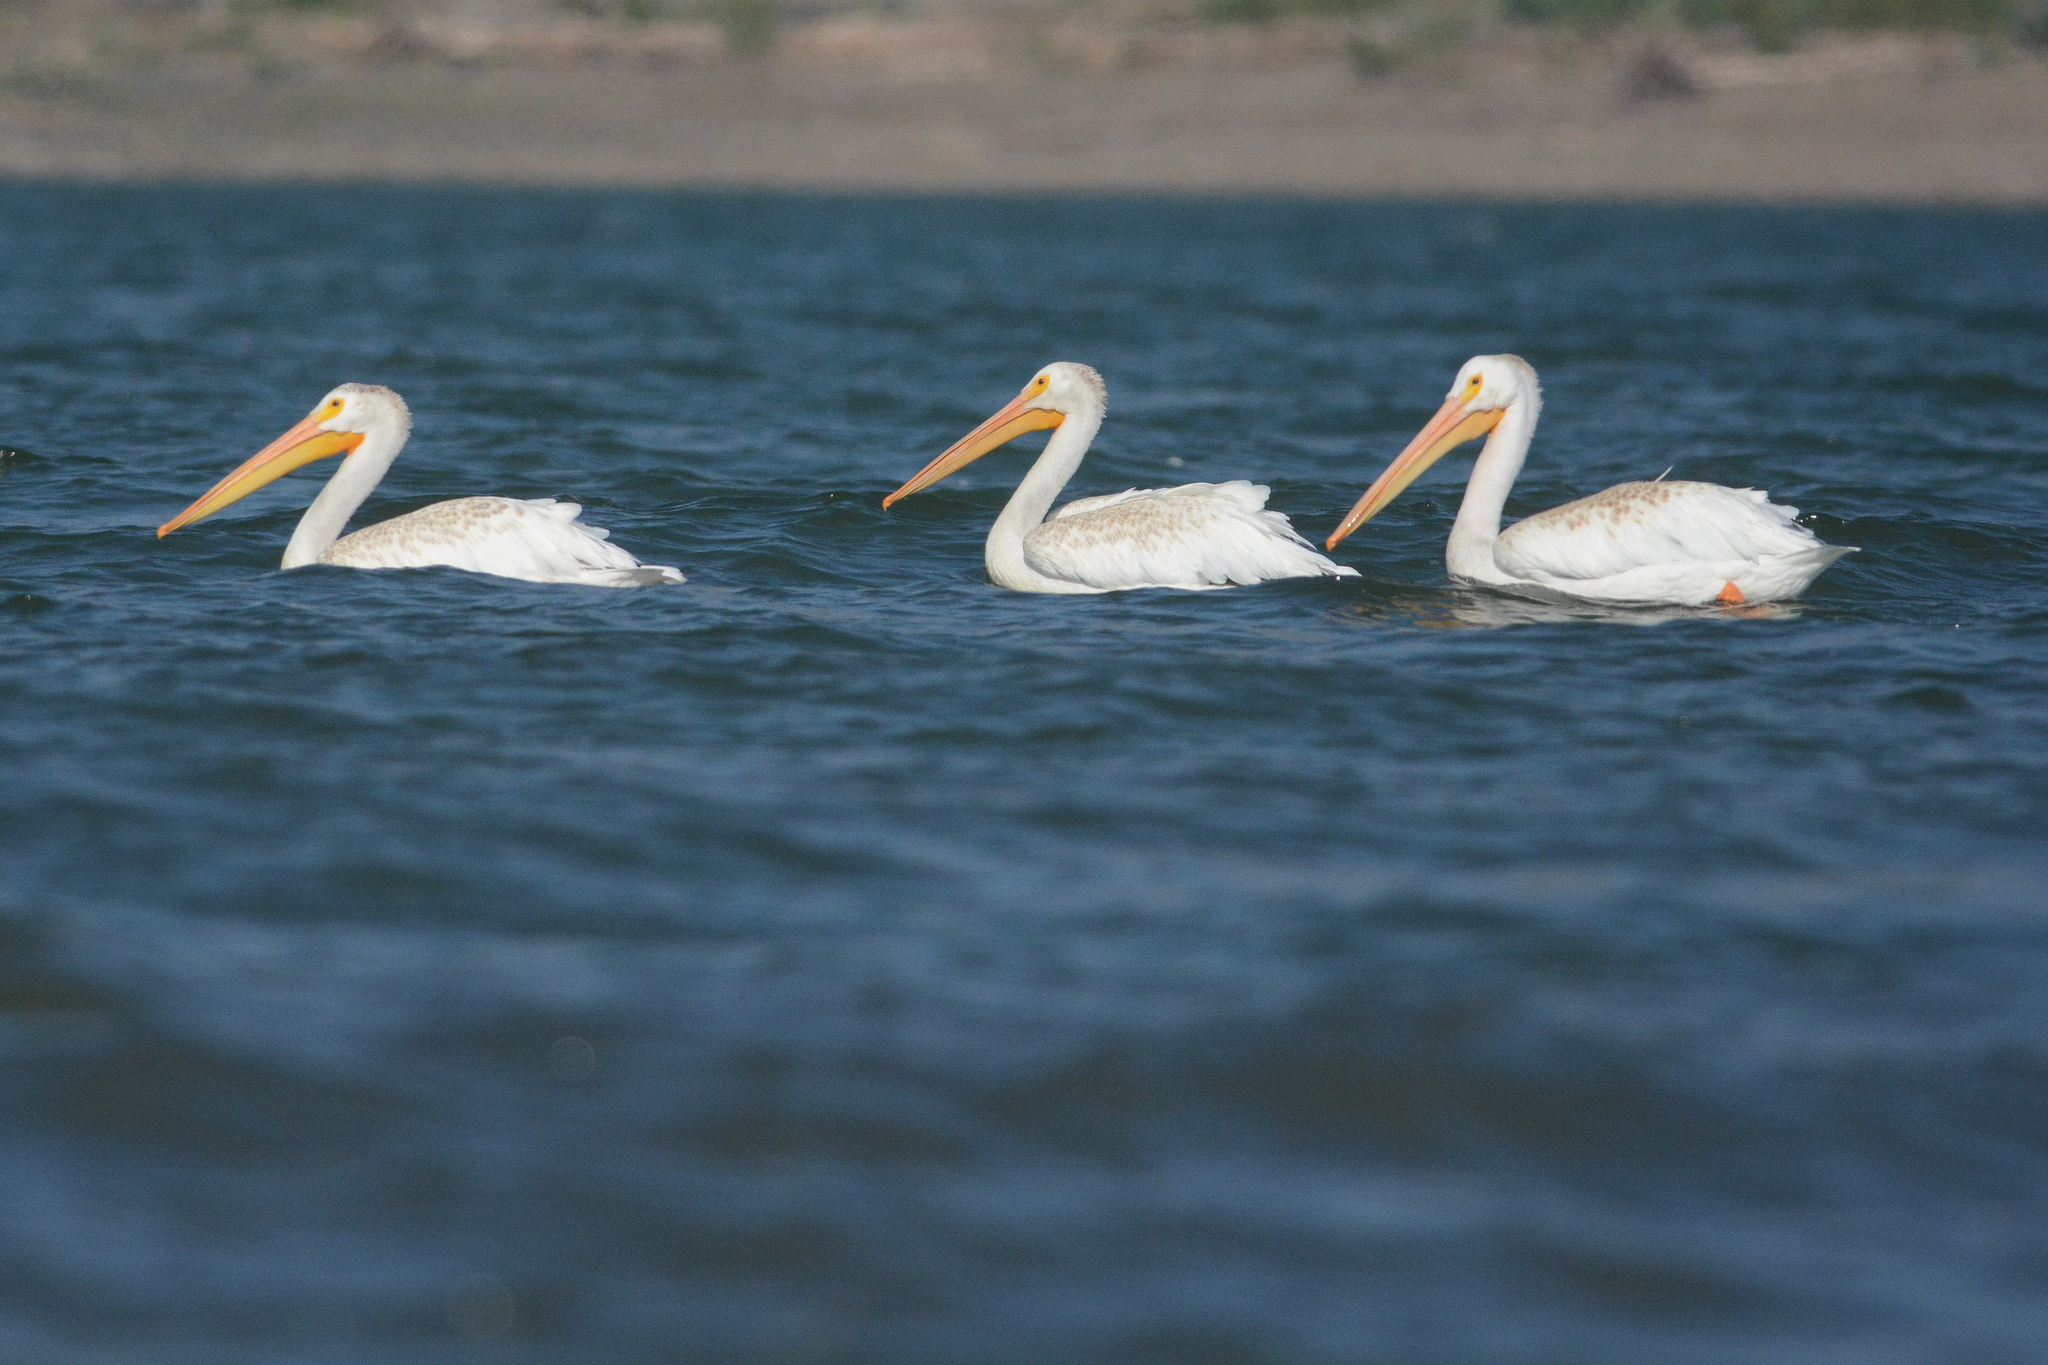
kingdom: Animalia
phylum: Chordata
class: Aves
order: Pelecaniformes
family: Pelecanidae
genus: Pelecanus
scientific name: Pelecanus erythrorhynchos
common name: American white pelican
